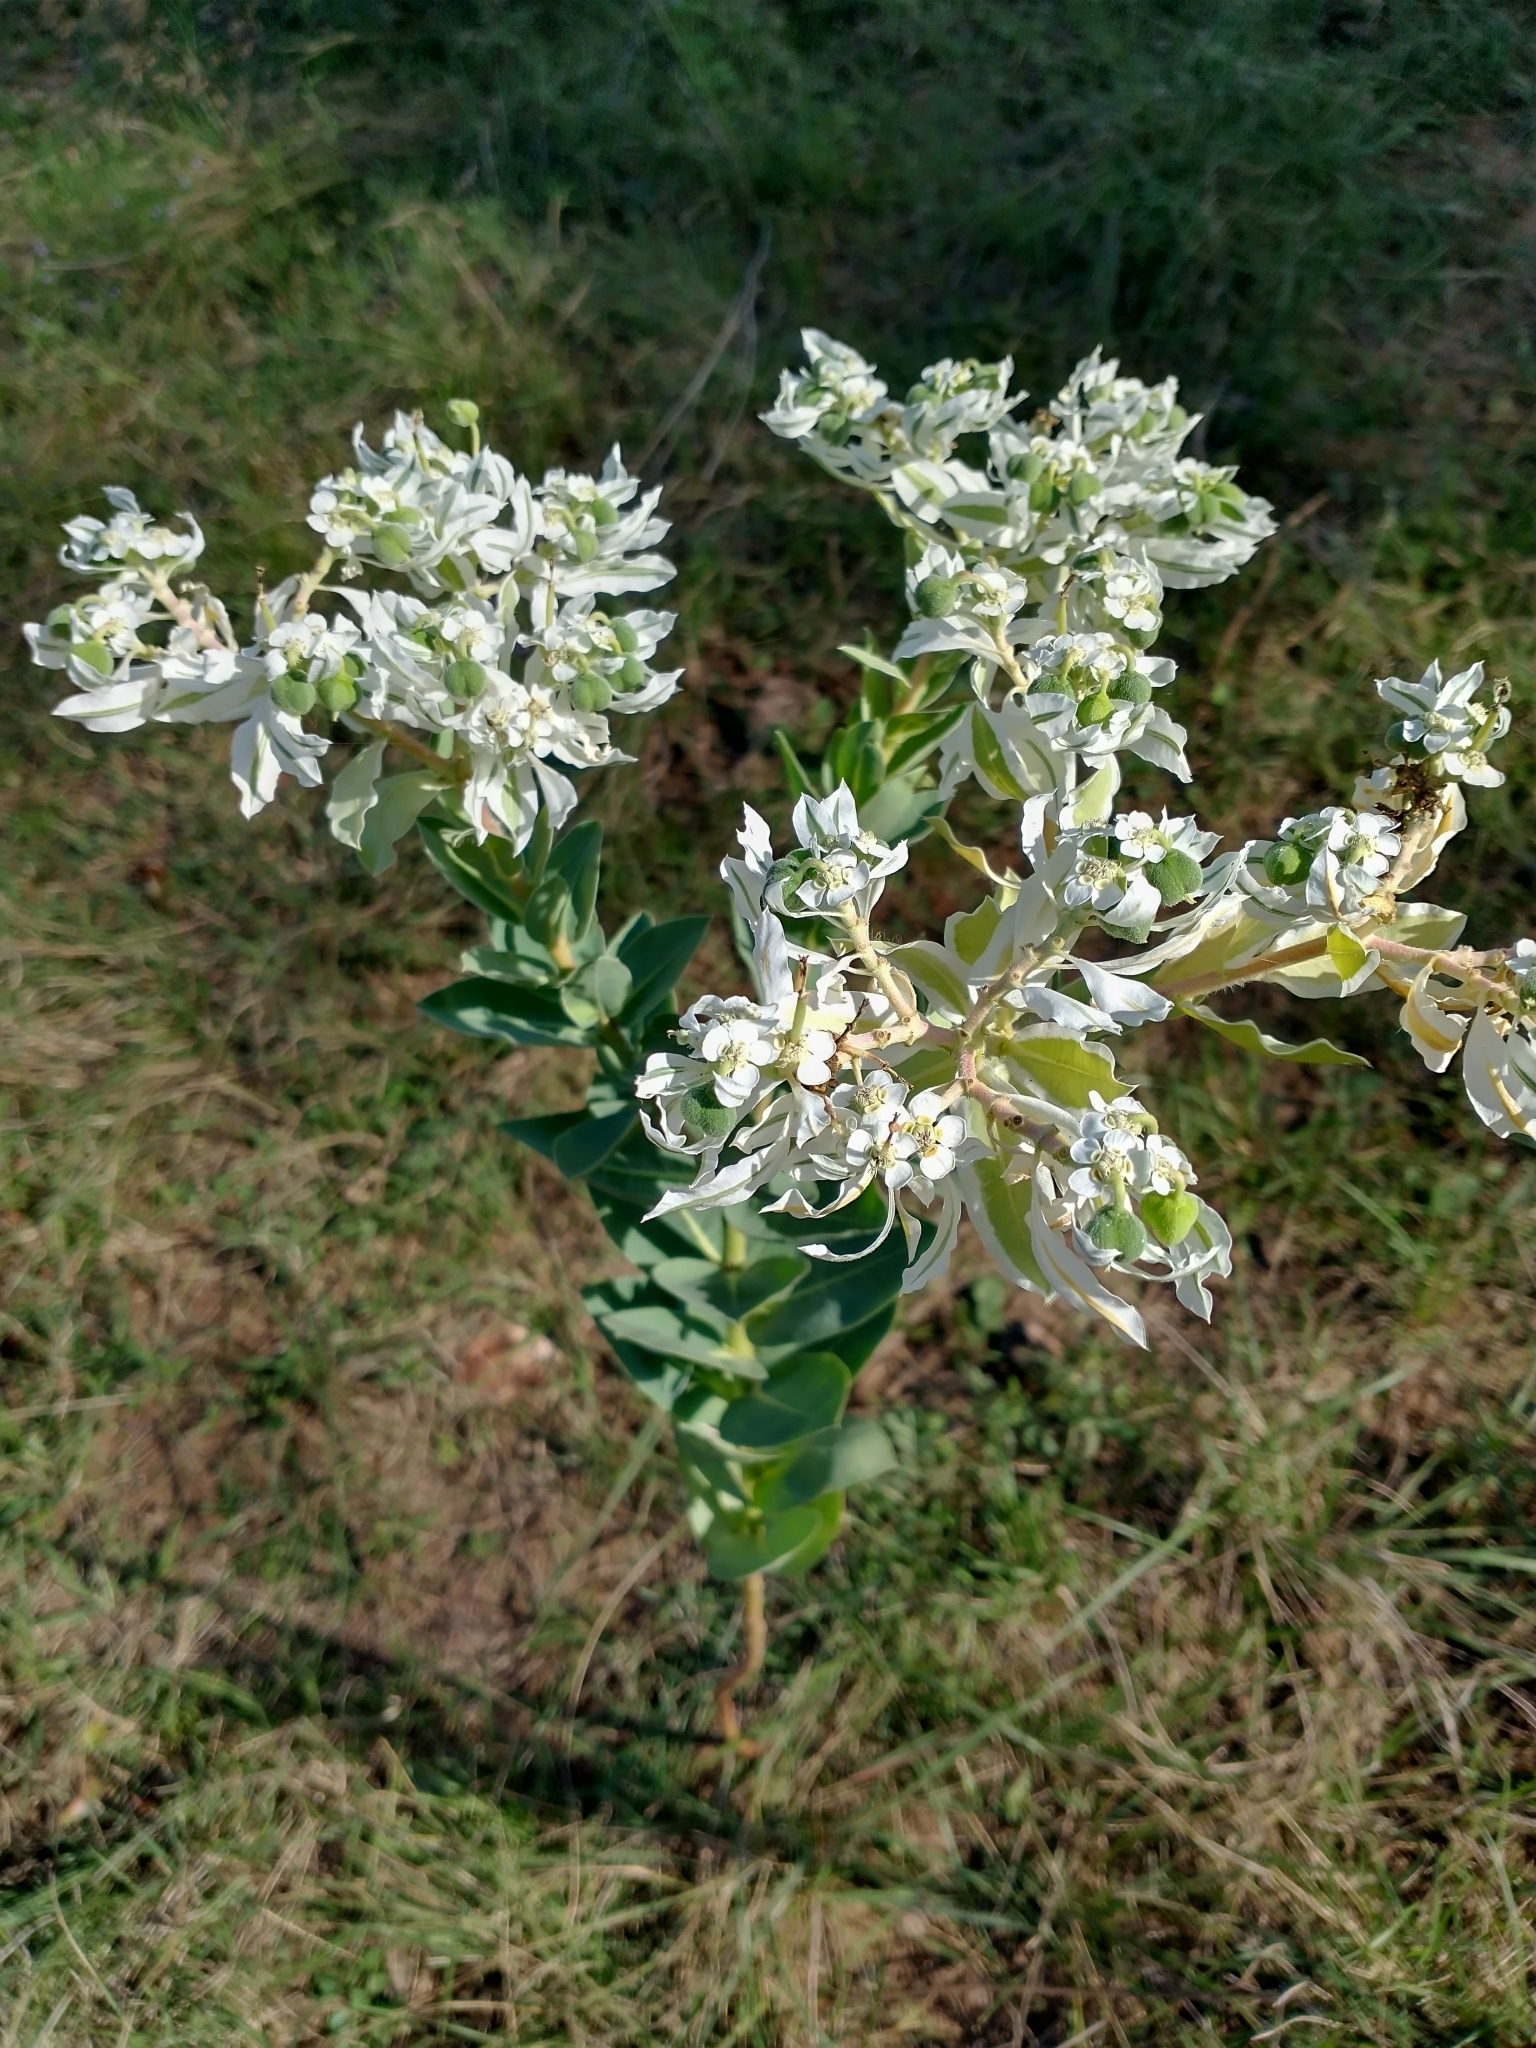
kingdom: Plantae
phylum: Tracheophyta
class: Magnoliopsida
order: Malpighiales
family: Euphorbiaceae
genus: Euphorbia
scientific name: Euphorbia marginata
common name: Ghostweed
